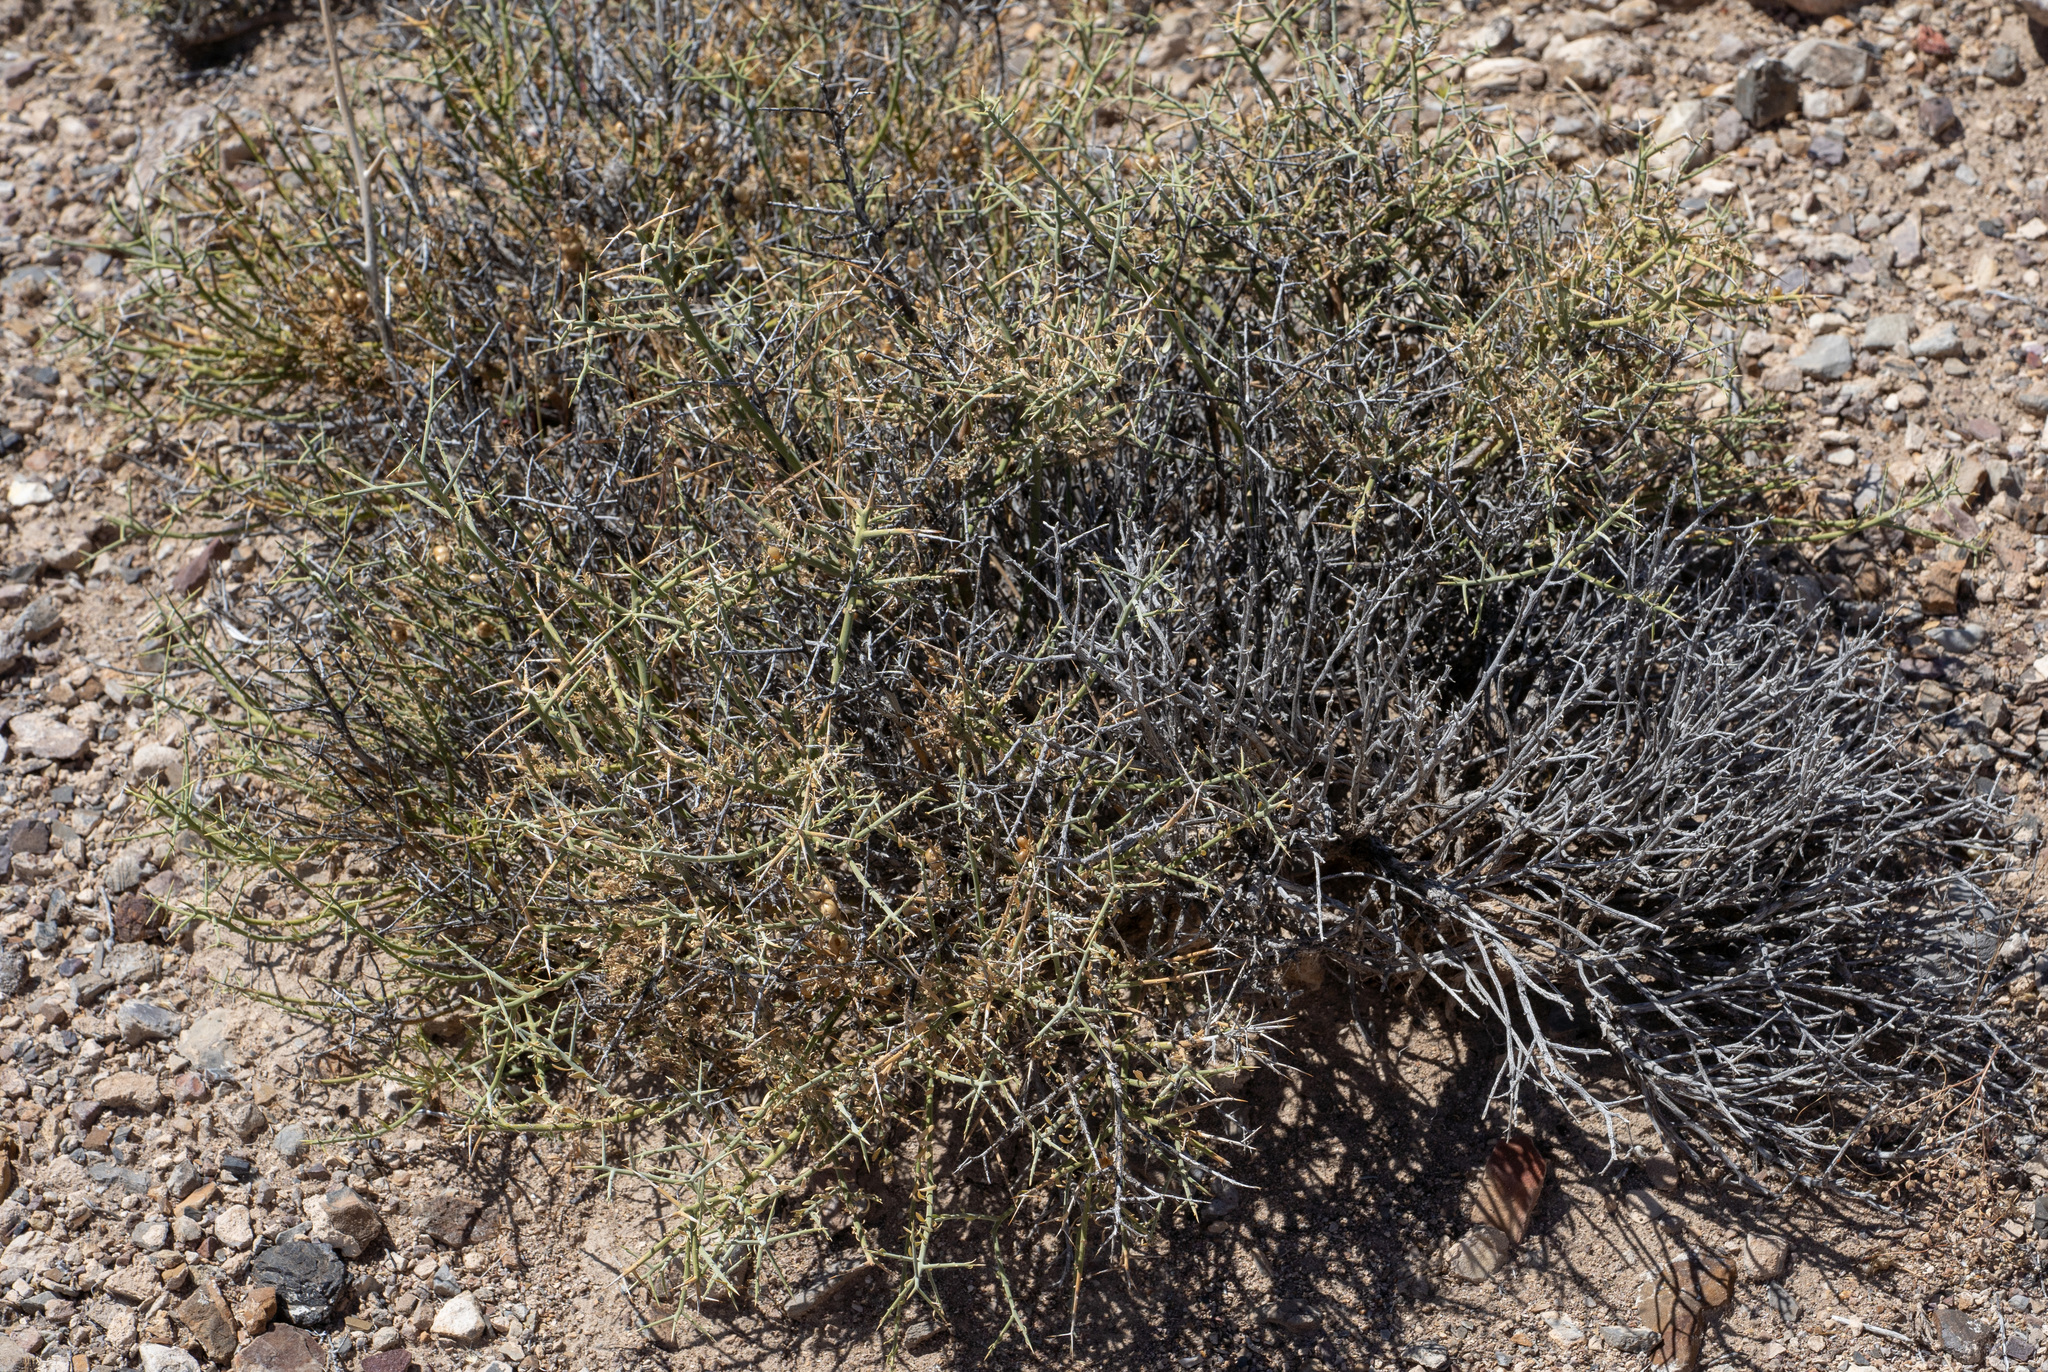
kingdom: Plantae
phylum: Tracheophyta
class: Magnoliopsida
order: Lamiales
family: Oleaceae
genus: Menodora
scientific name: Menodora spinescens
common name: Spiny menodora
